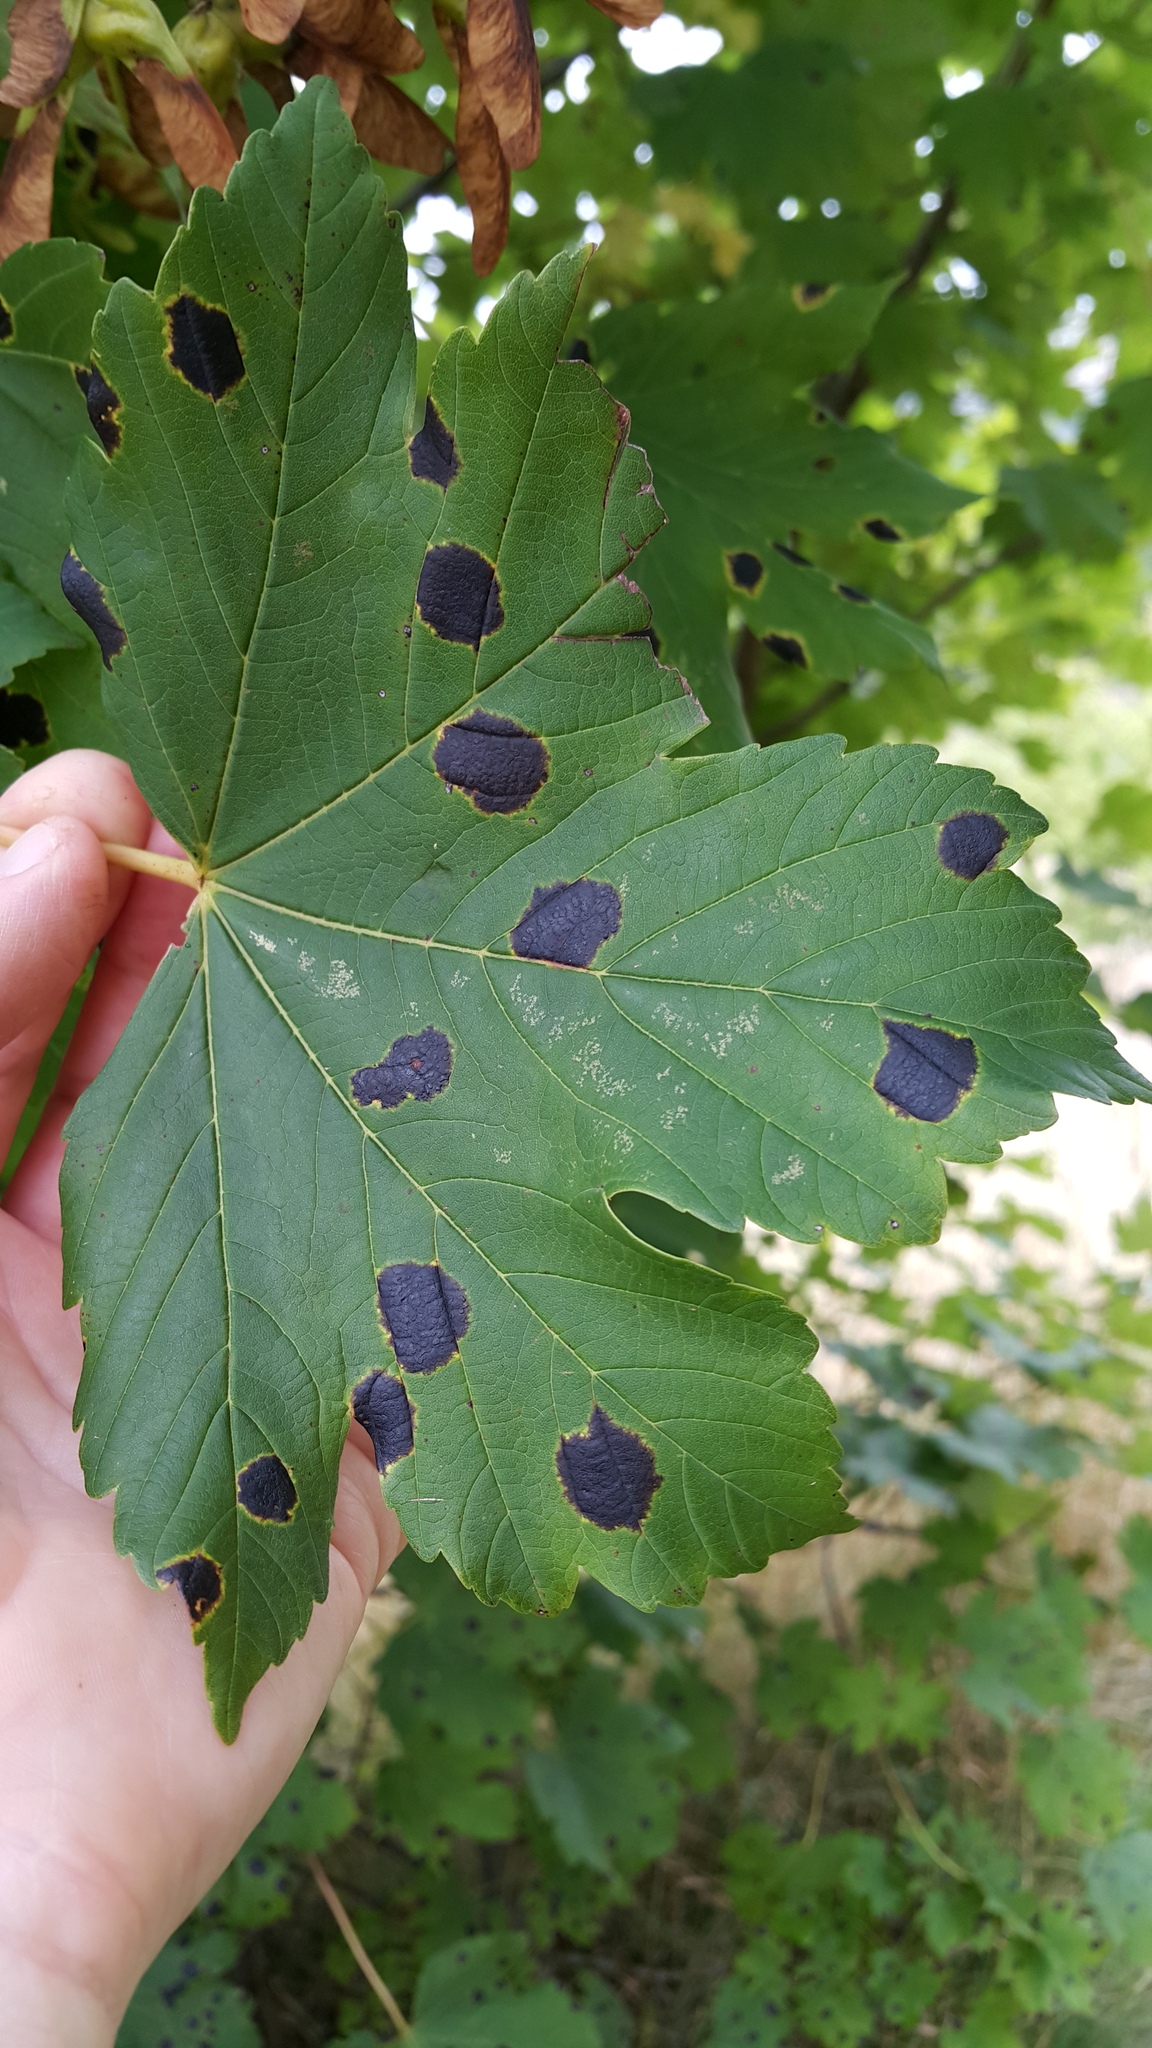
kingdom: Fungi
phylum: Ascomycota
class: Leotiomycetes
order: Rhytismatales
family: Rhytismataceae
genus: Rhytisma
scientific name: Rhytisma acerinum
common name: European tar spot
